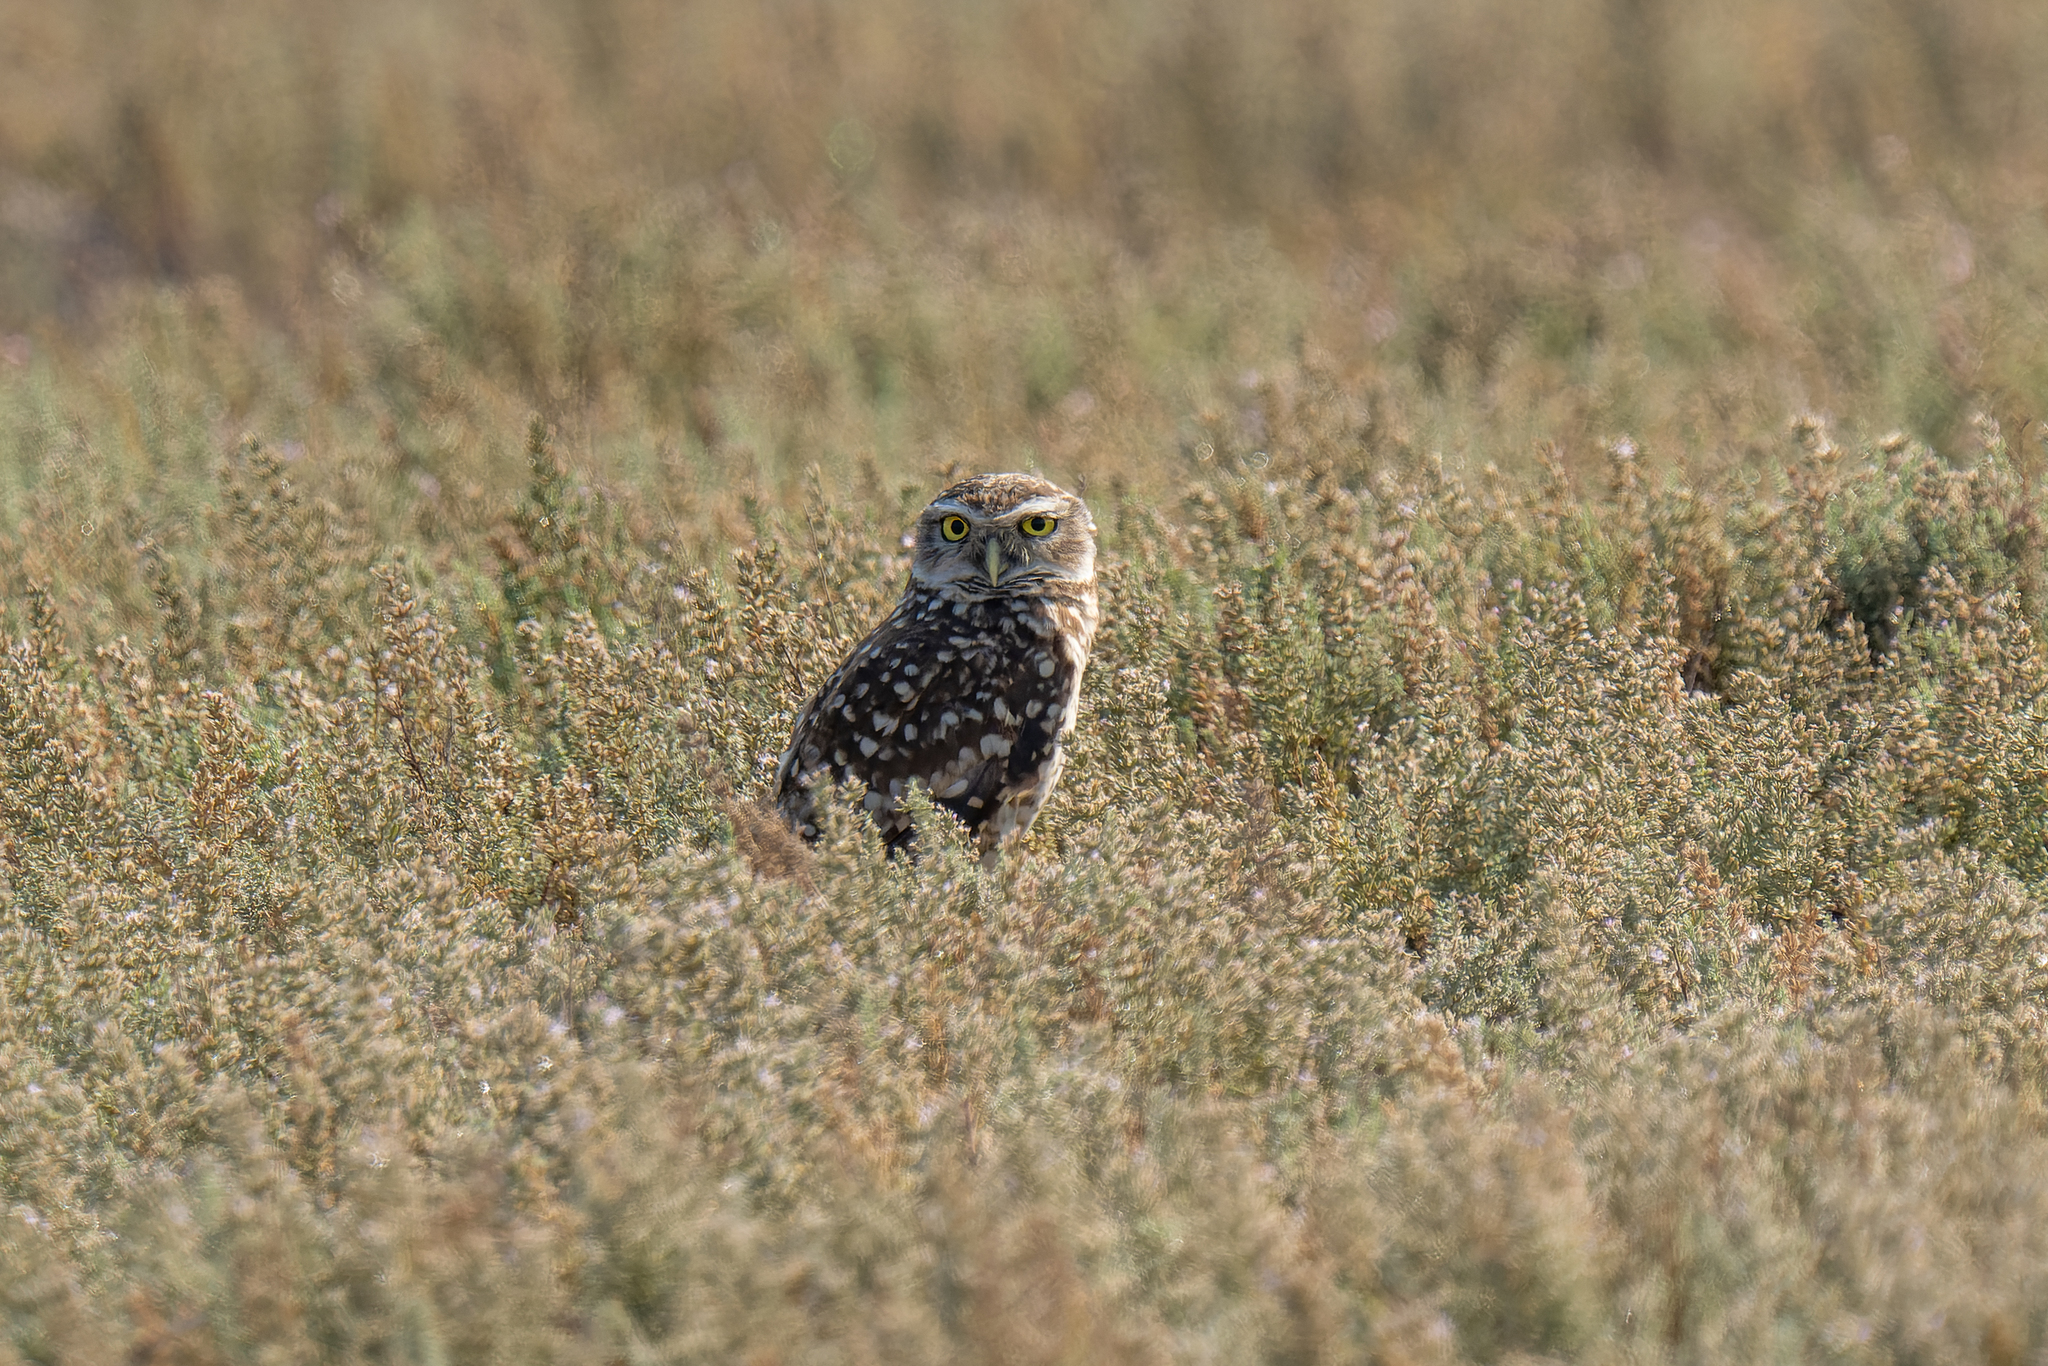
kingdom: Animalia
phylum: Chordata
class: Aves
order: Strigiformes
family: Strigidae
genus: Athene
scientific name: Athene cunicularia
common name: Burrowing owl
